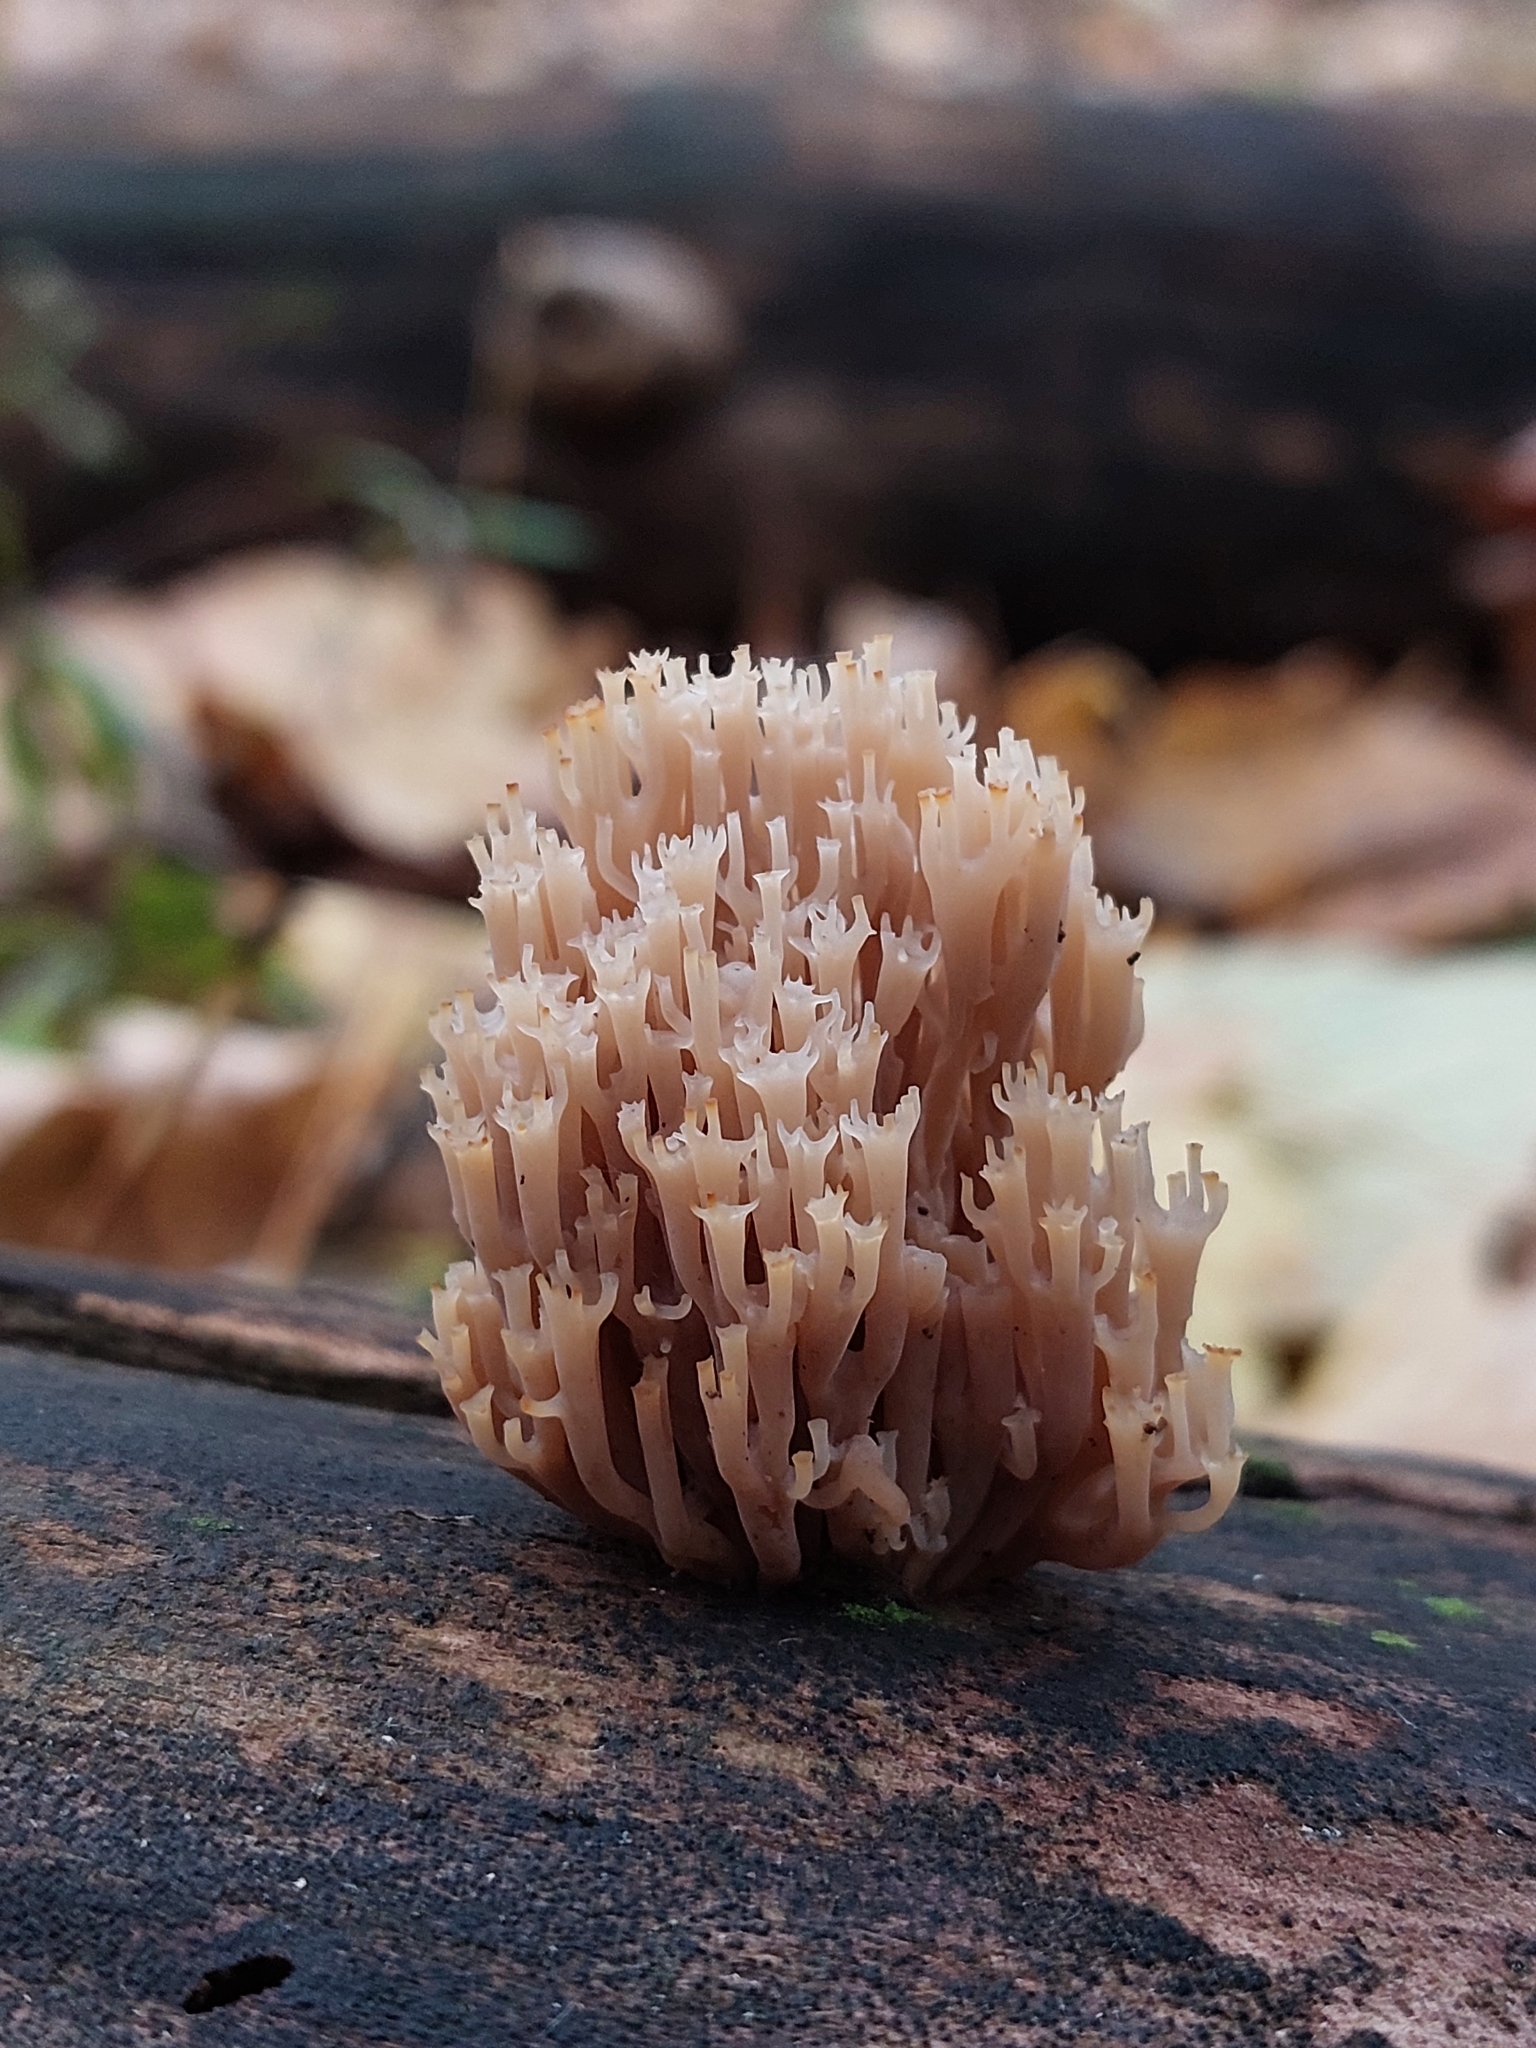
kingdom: Fungi
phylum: Basidiomycota
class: Agaricomycetes
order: Russulales
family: Auriscalpiaceae
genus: Artomyces
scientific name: Artomyces pyxidatus
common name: Crown-tipped coral fungus
